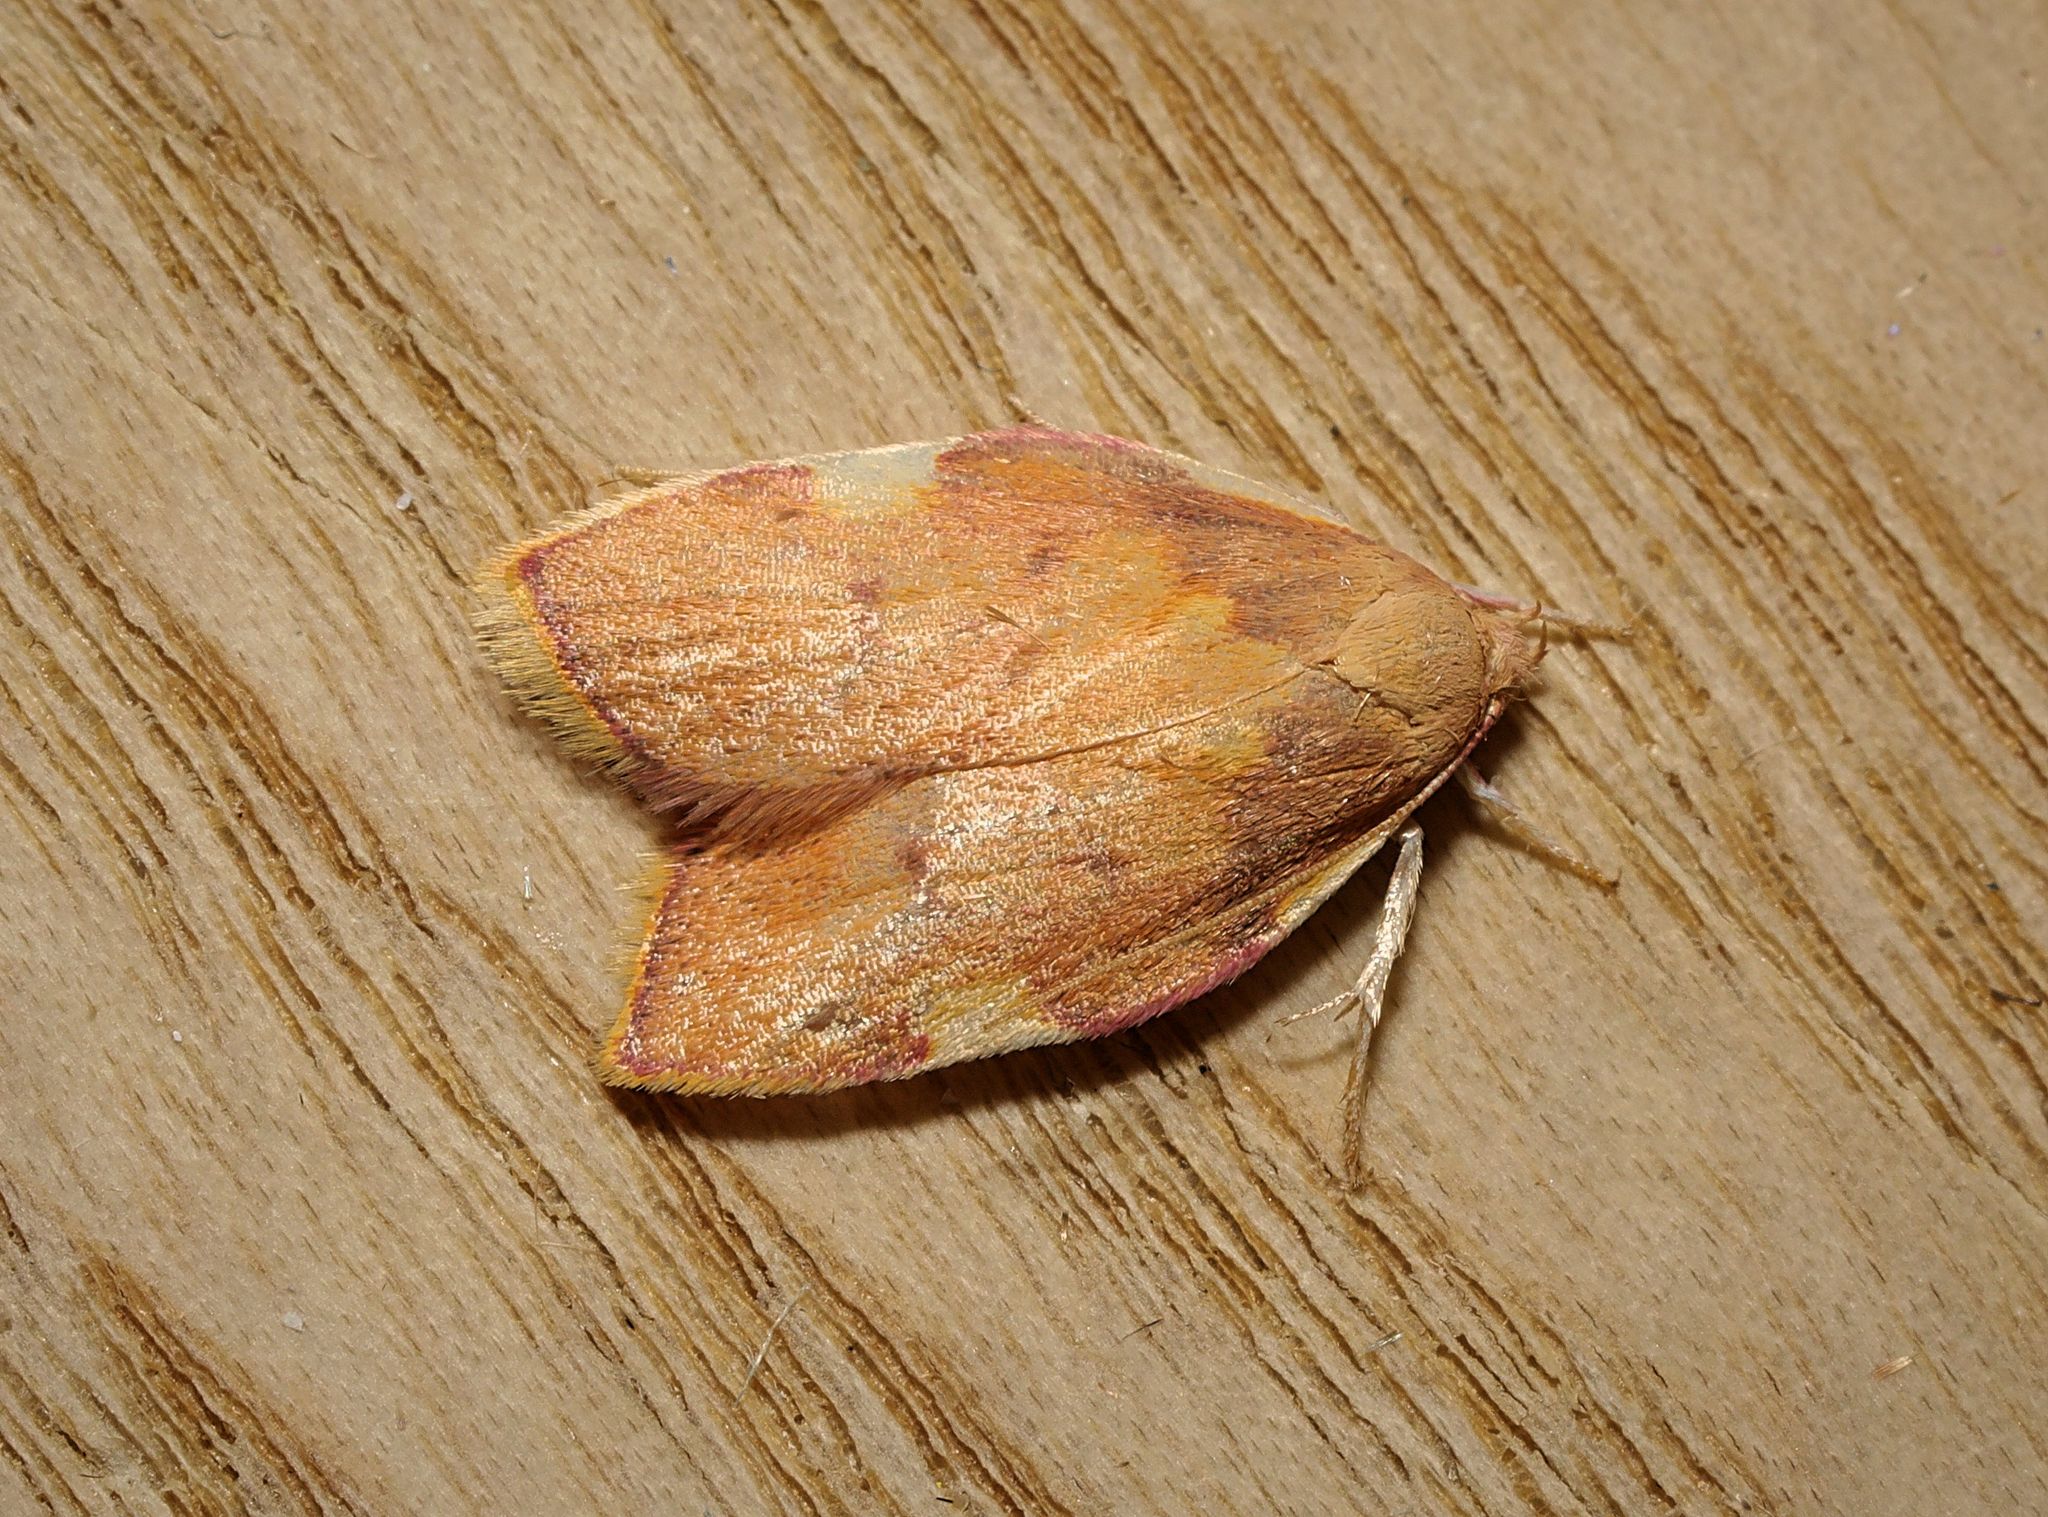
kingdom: Animalia
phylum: Arthropoda
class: Insecta
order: Lepidoptera
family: Peleopodidae
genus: Carcina
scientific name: Carcina quercana
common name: Moth
